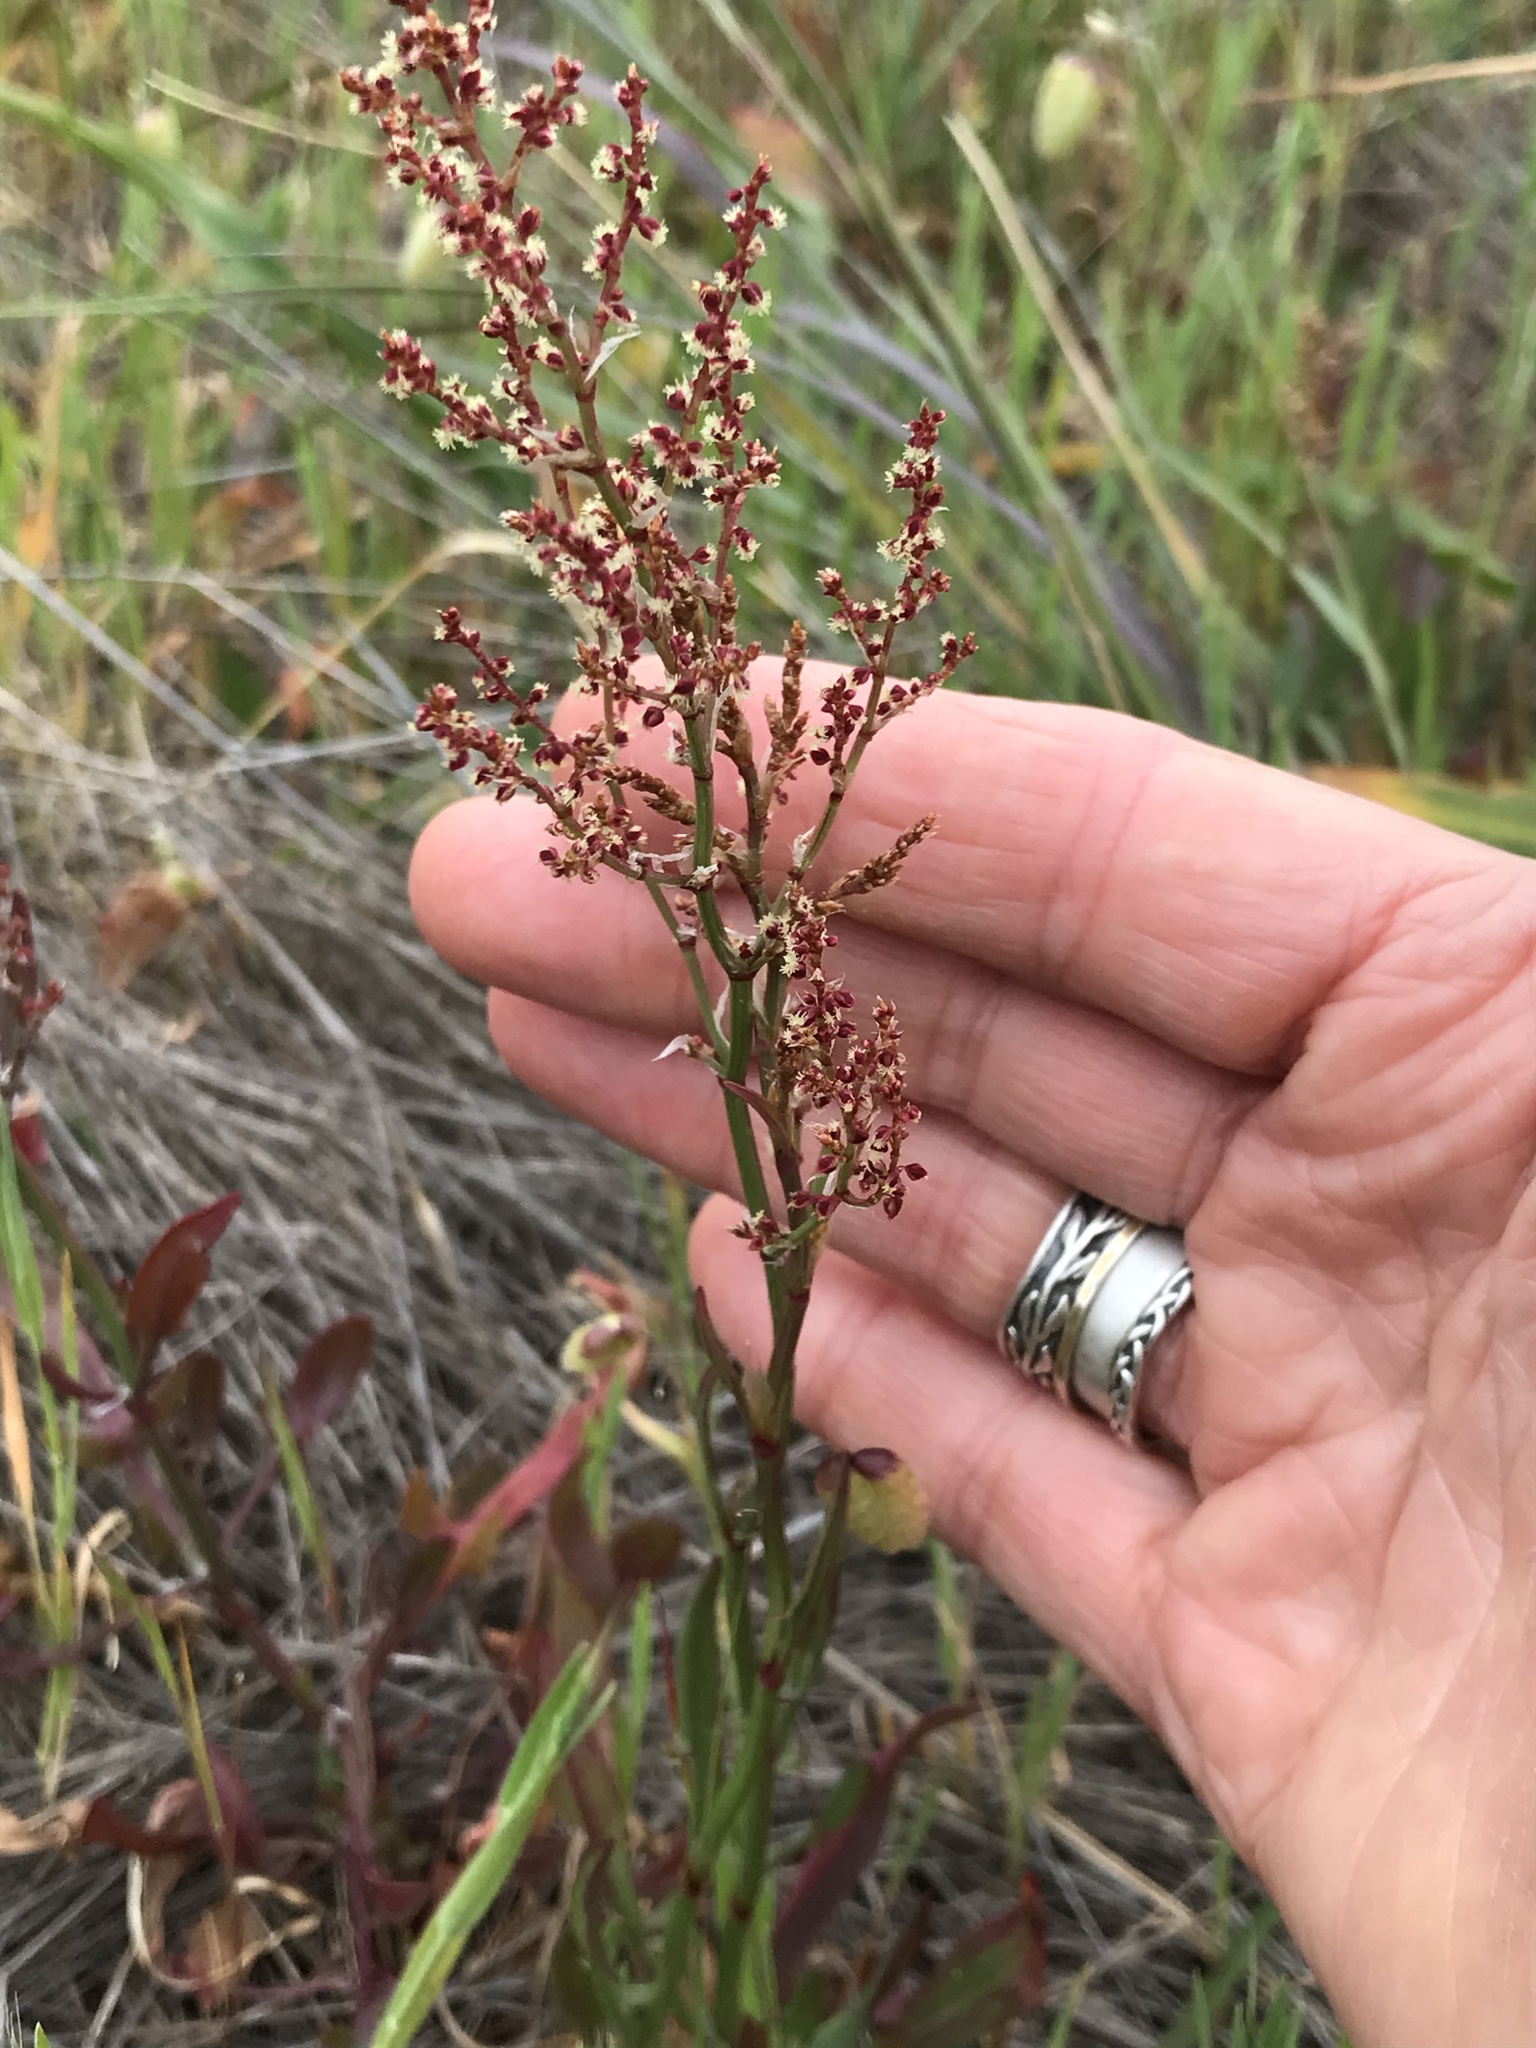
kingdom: Plantae
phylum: Tracheophyta
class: Magnoliopsida
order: Caryophyllales
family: Polygonaceae
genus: Rumex
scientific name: Rumex acetosella
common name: Common sheep sorrel
